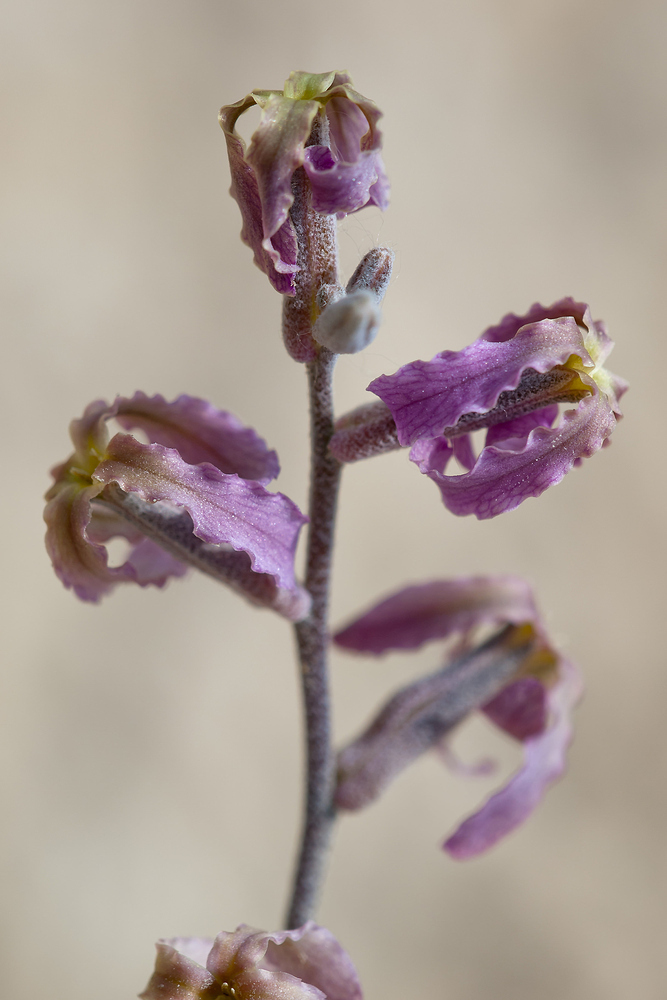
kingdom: Plantae
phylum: Tracheophyta
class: Magnoliopsida
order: Brassicales
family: Brassicaceae
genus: Matthiola
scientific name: Matthiola fruticulosa
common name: Sad stock
